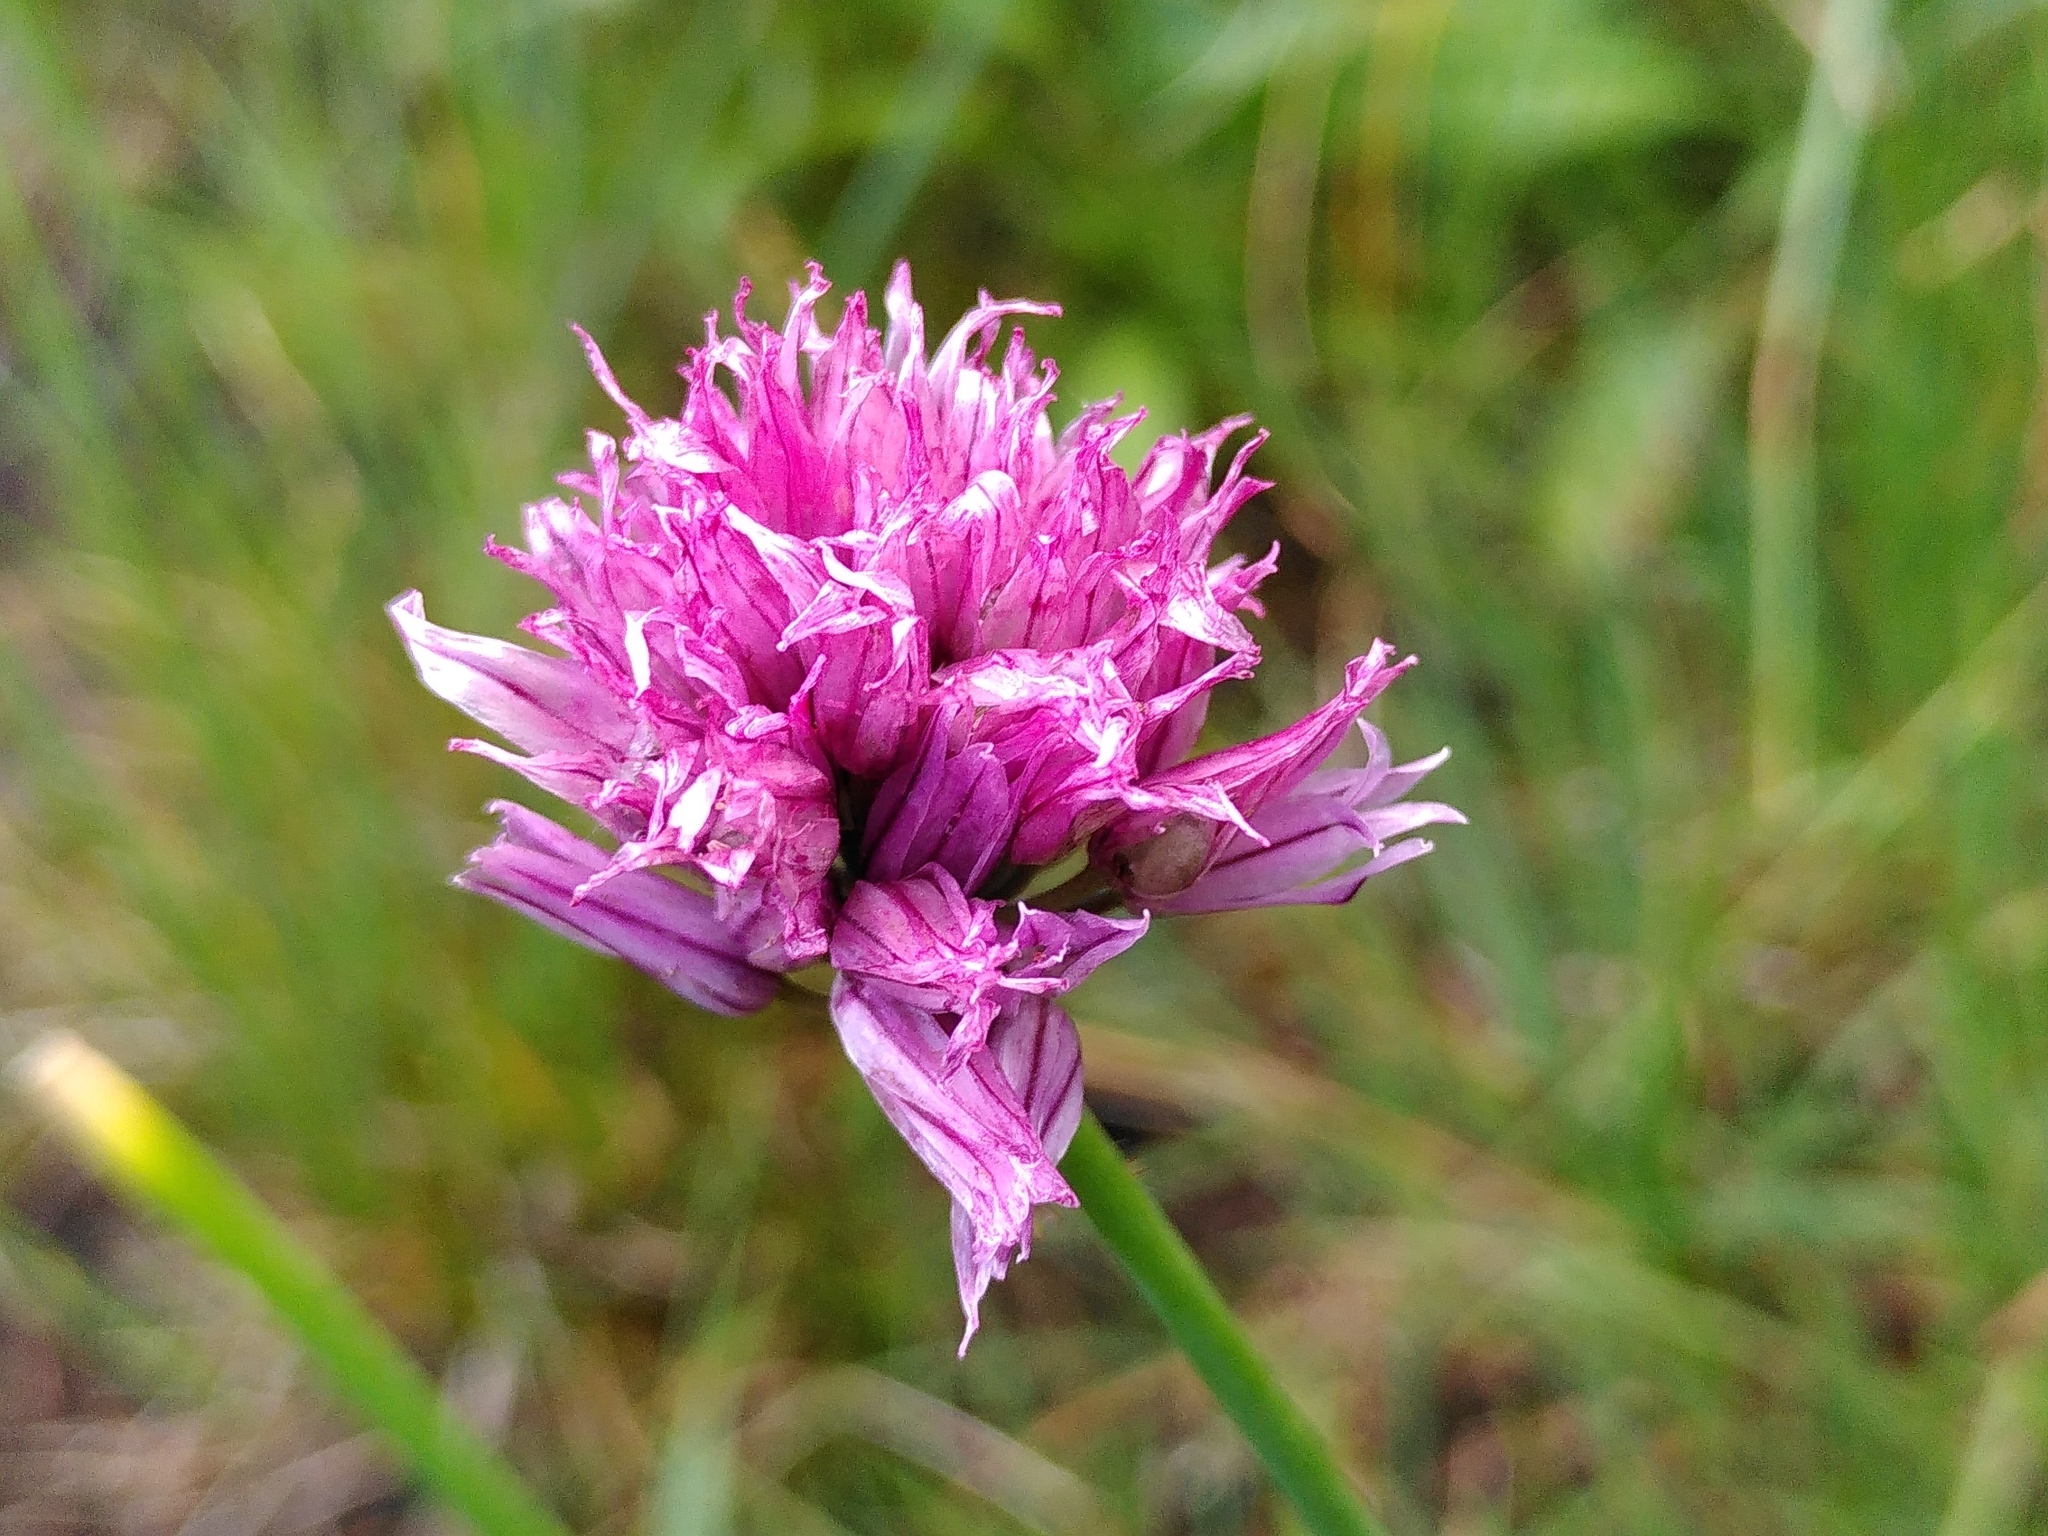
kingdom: Plantae
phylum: Tracheophyta
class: Liliopsida
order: Asparagales
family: Amaryllidaceae
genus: Allium
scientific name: Allium schoenoprasum
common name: Chives
